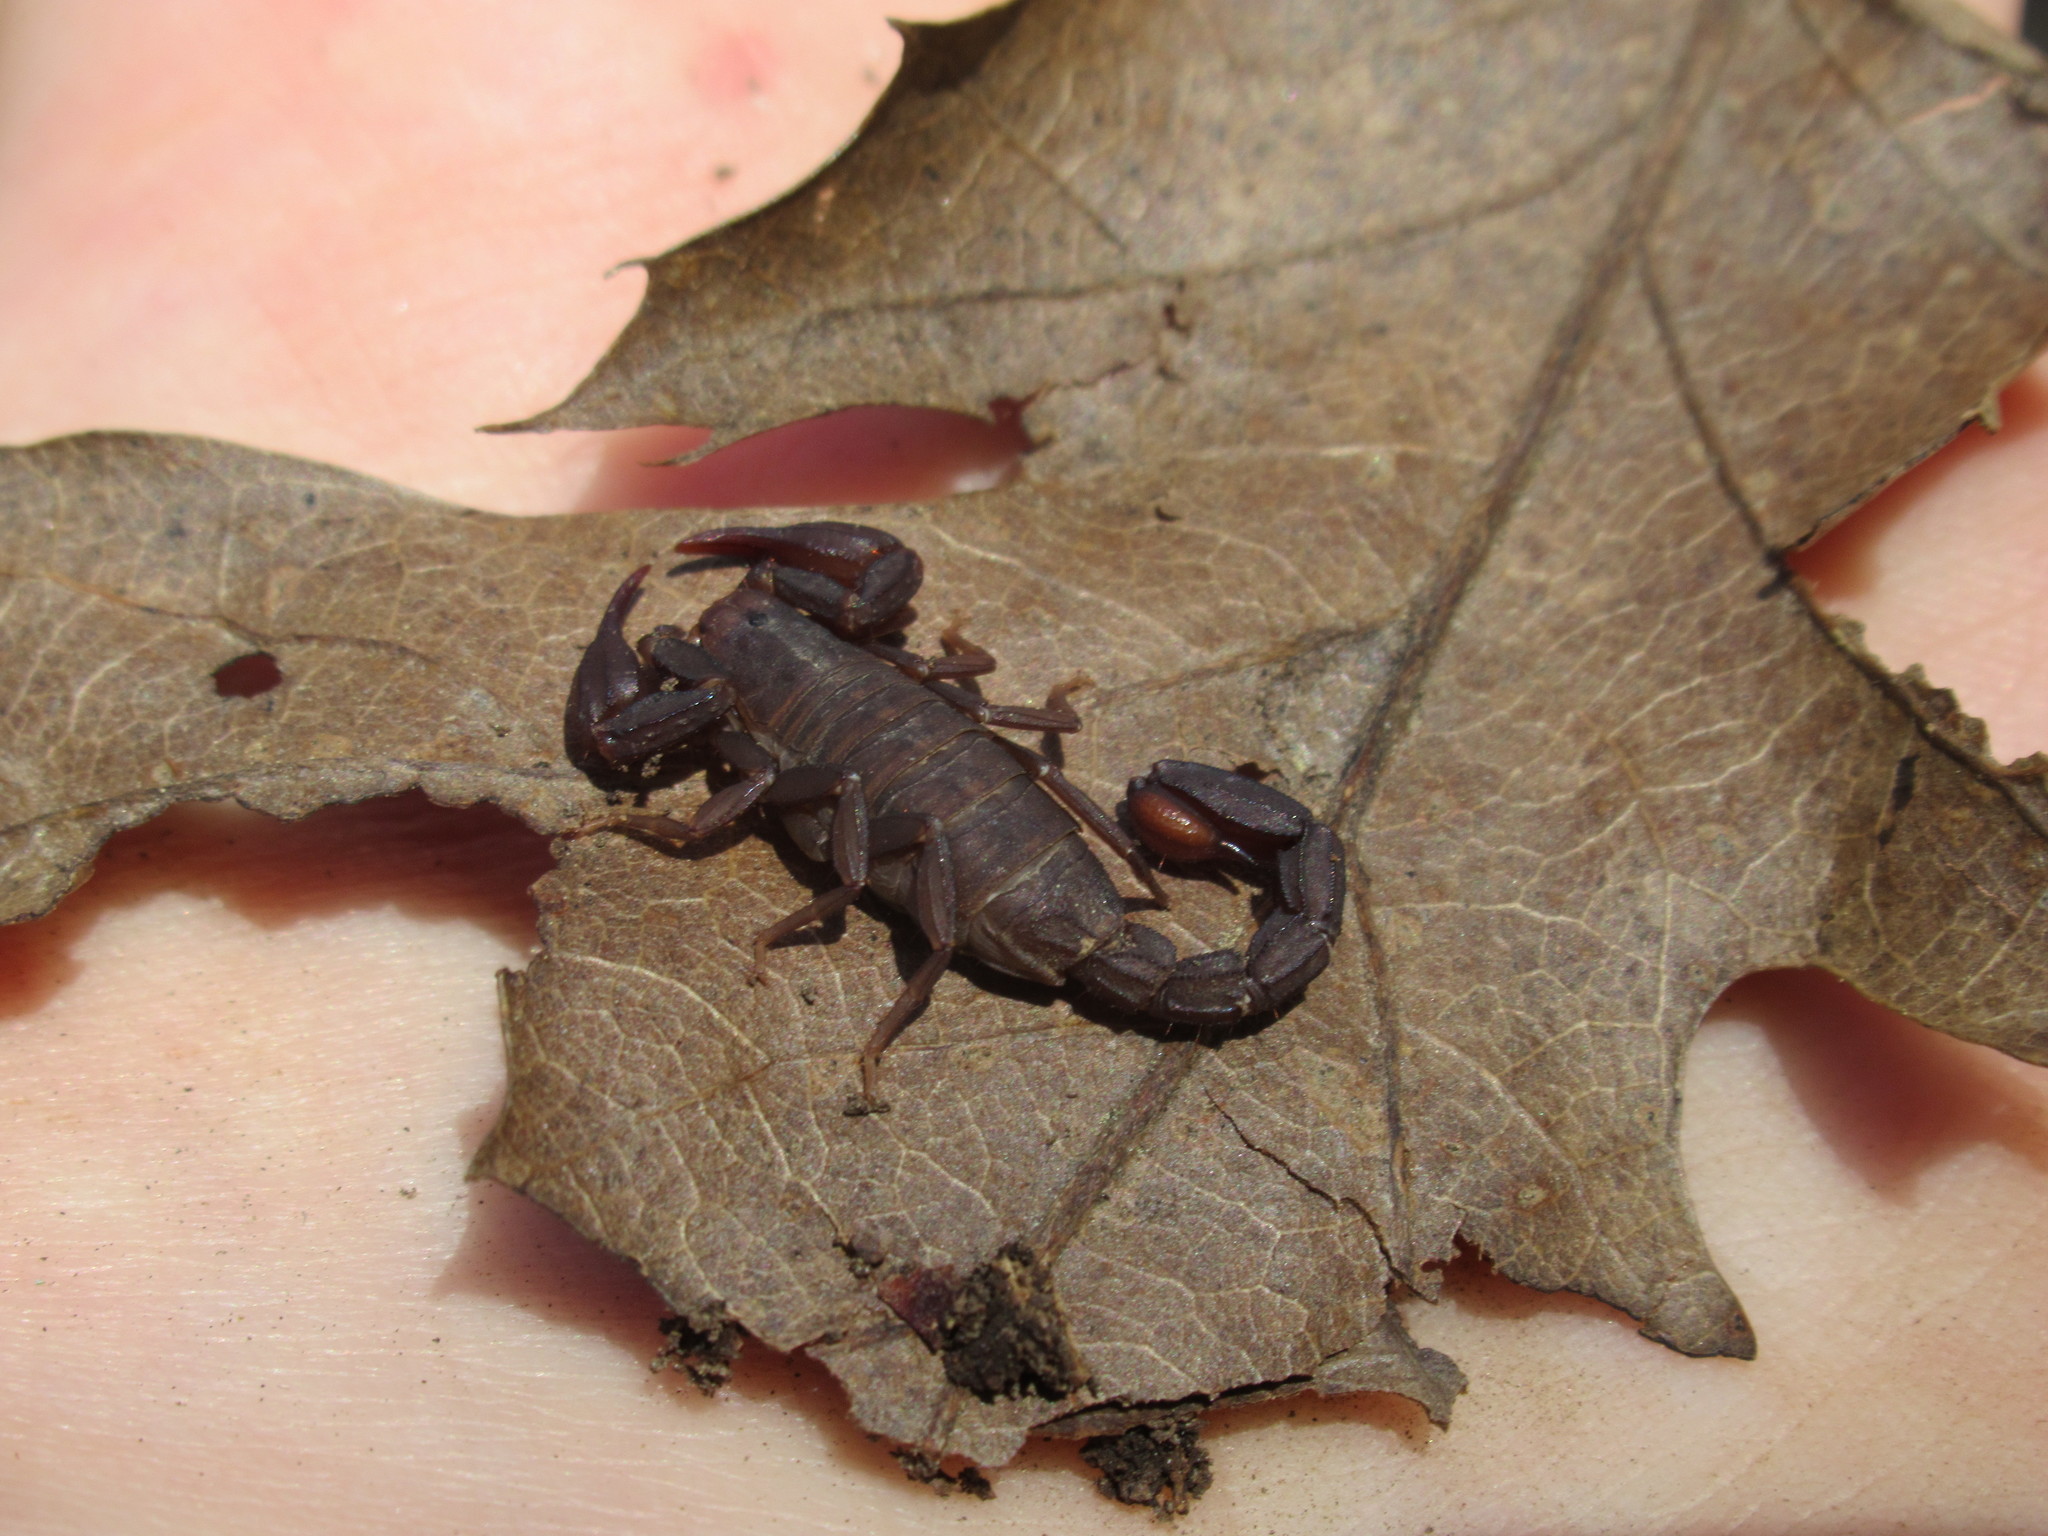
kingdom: Animalia
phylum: Arthropoda
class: Arachnida
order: Scorpiones
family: Vaejovidae
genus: Graemeloweus
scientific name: Graemeloweus iviei
